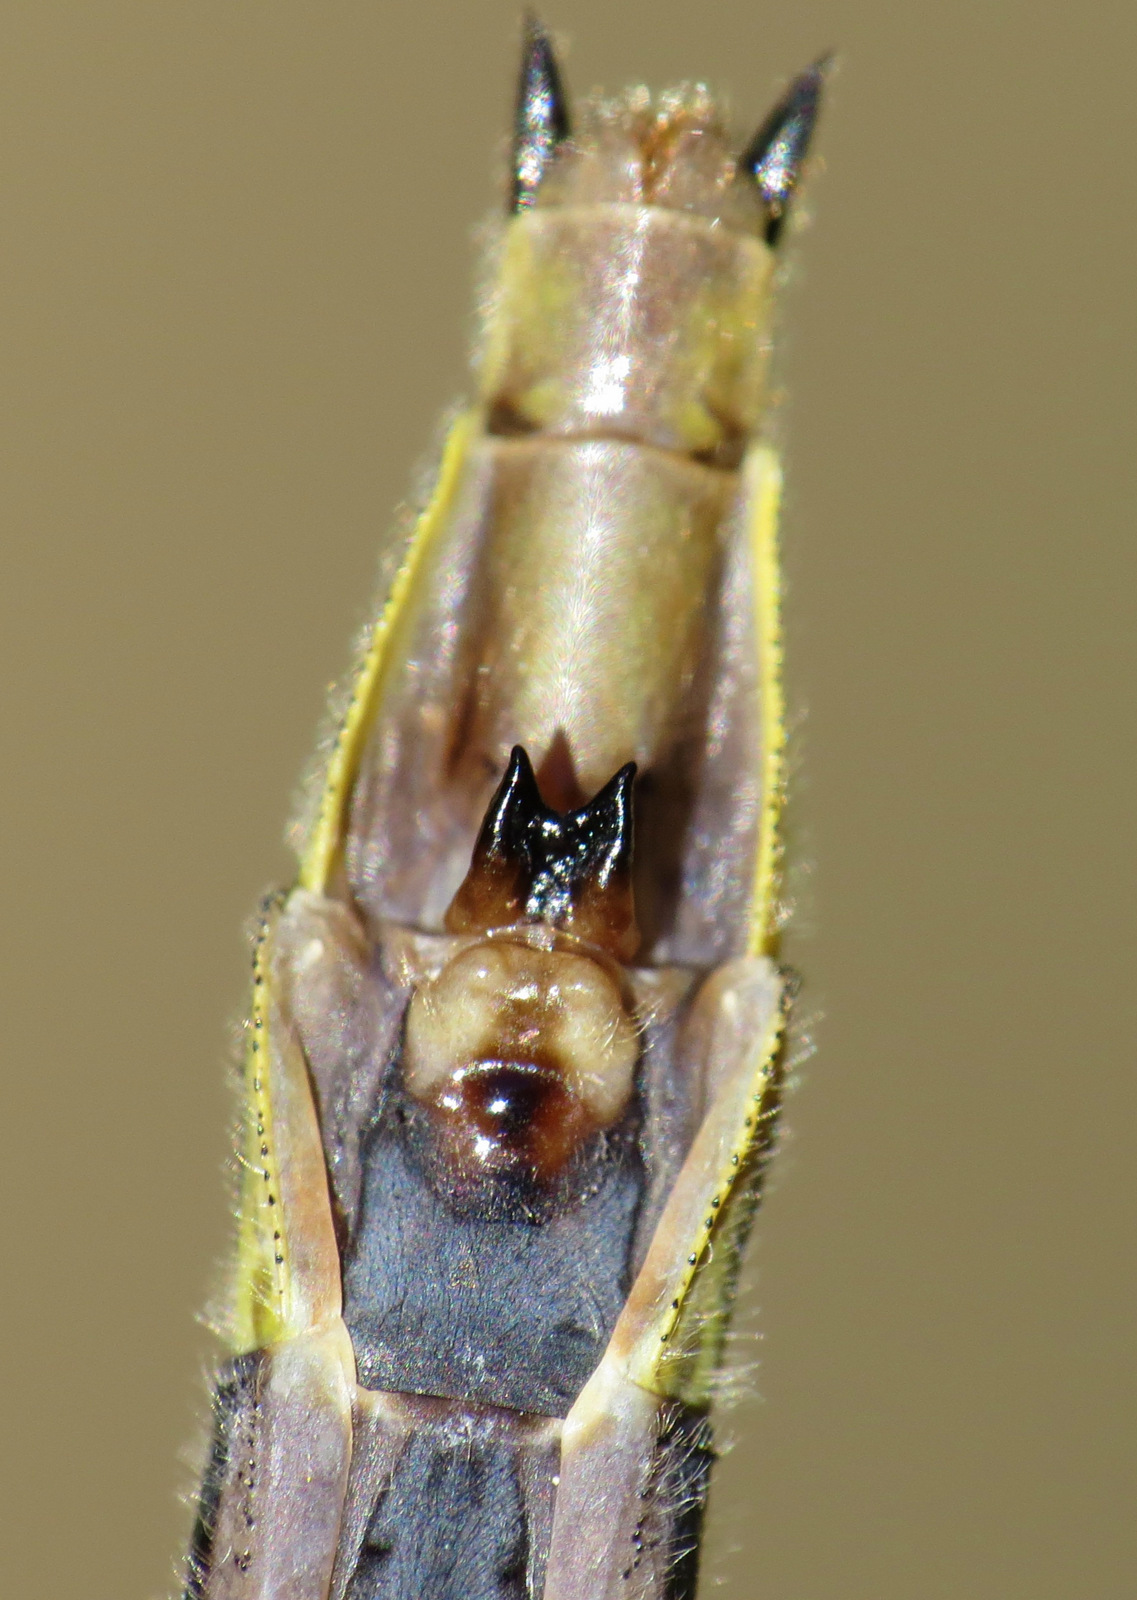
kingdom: Animalia
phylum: Arthropoda
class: Insecta
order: Odonata
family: Gomphidae
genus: Phanogomphus
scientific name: Phanogomphus descriptus
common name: Harpoon clubtail
